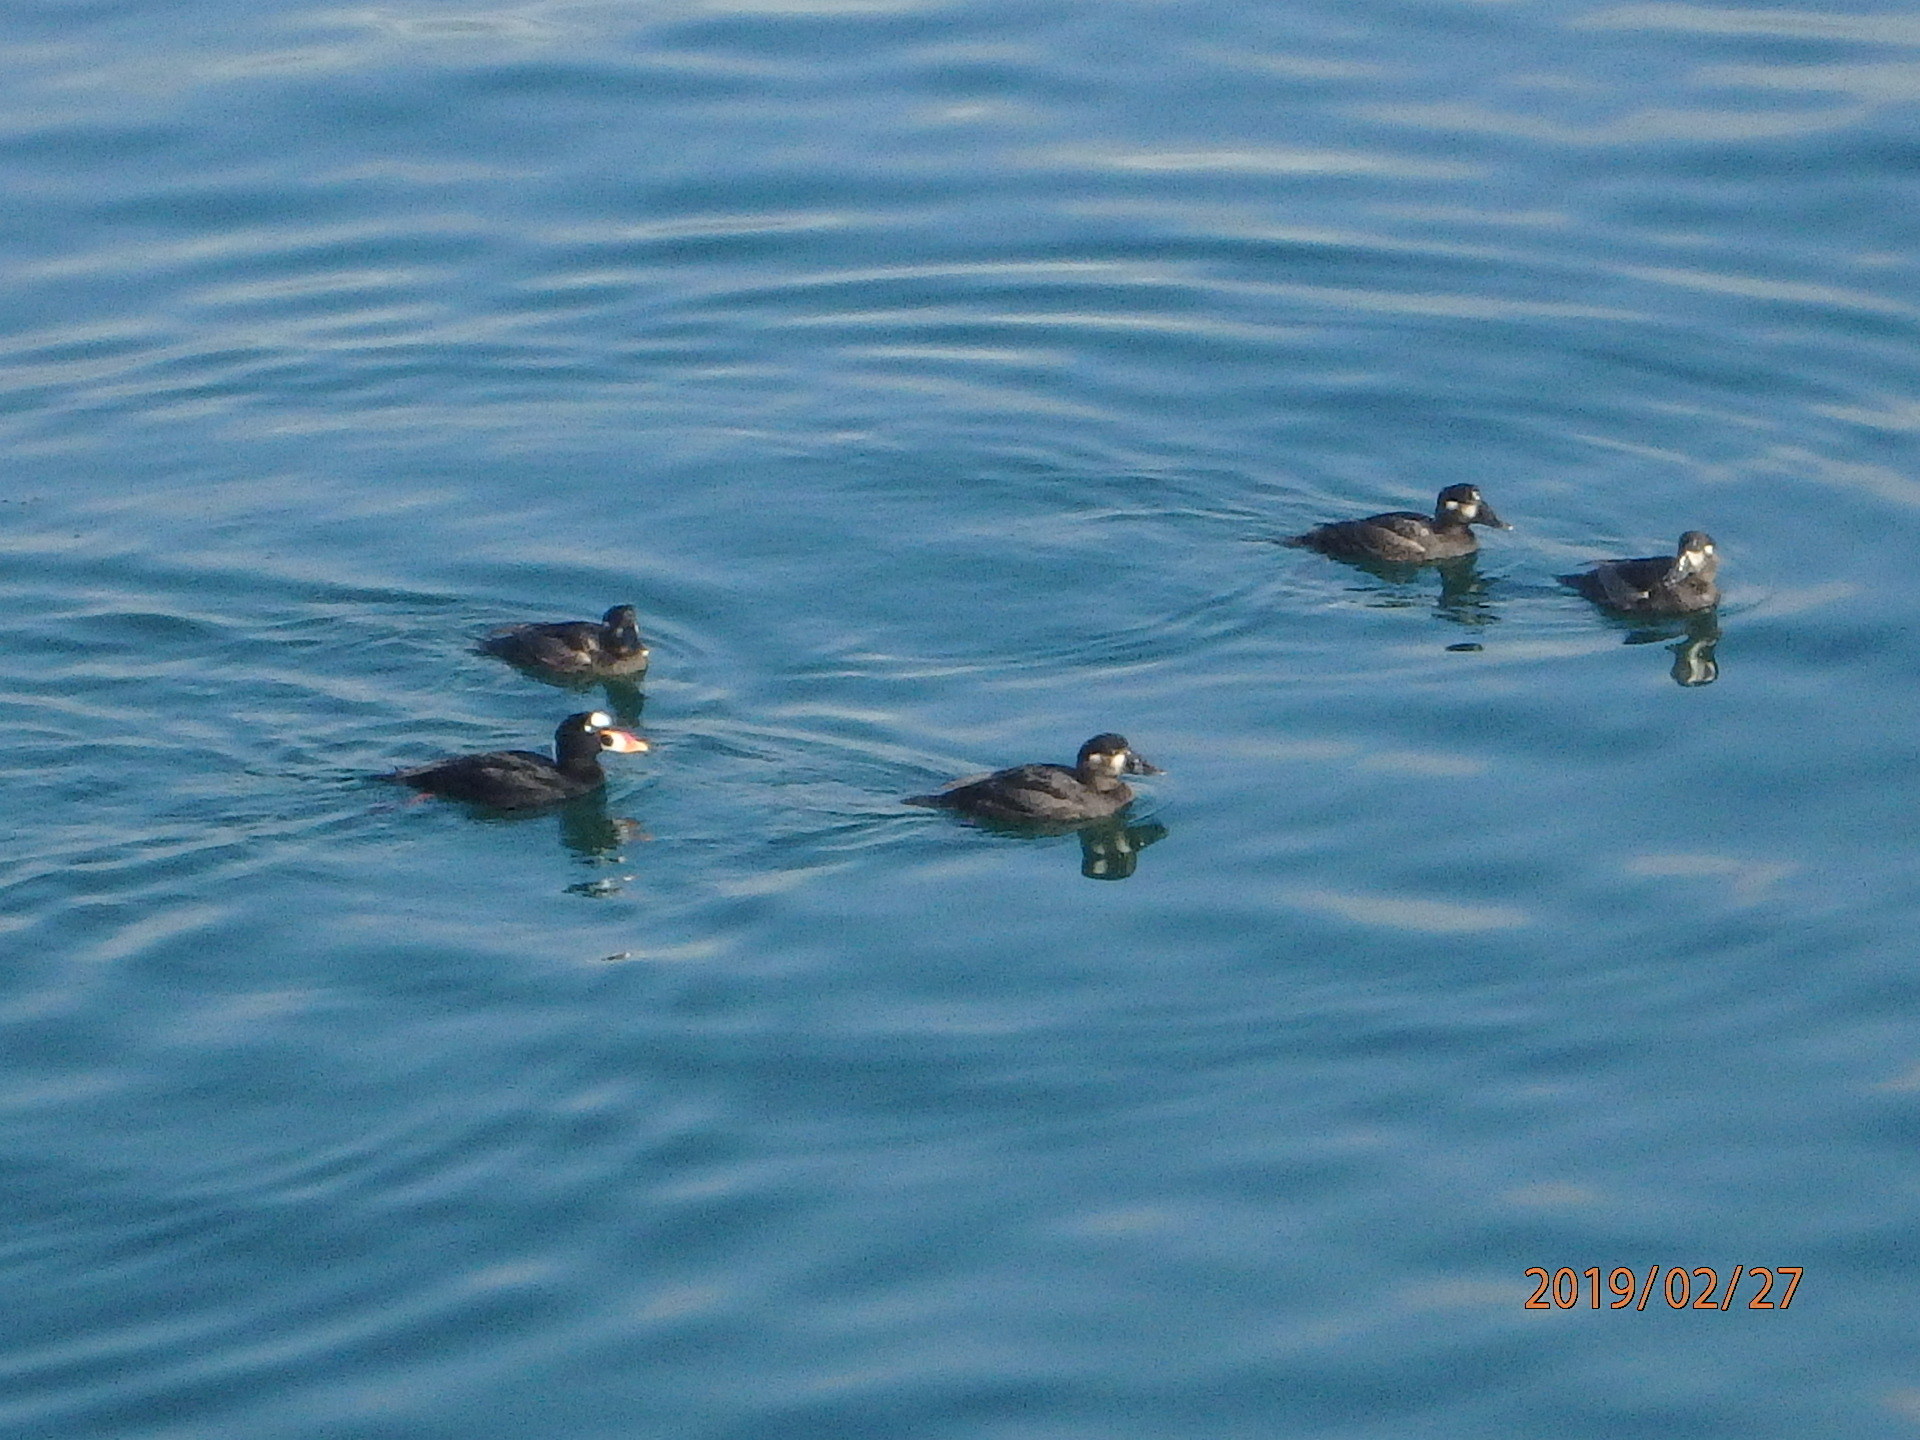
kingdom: Animalia
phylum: Chordata
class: Aves
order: Anseriformes
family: Anatidae
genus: Melanitta
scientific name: Melanitta perspicillata
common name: Surf scoter
